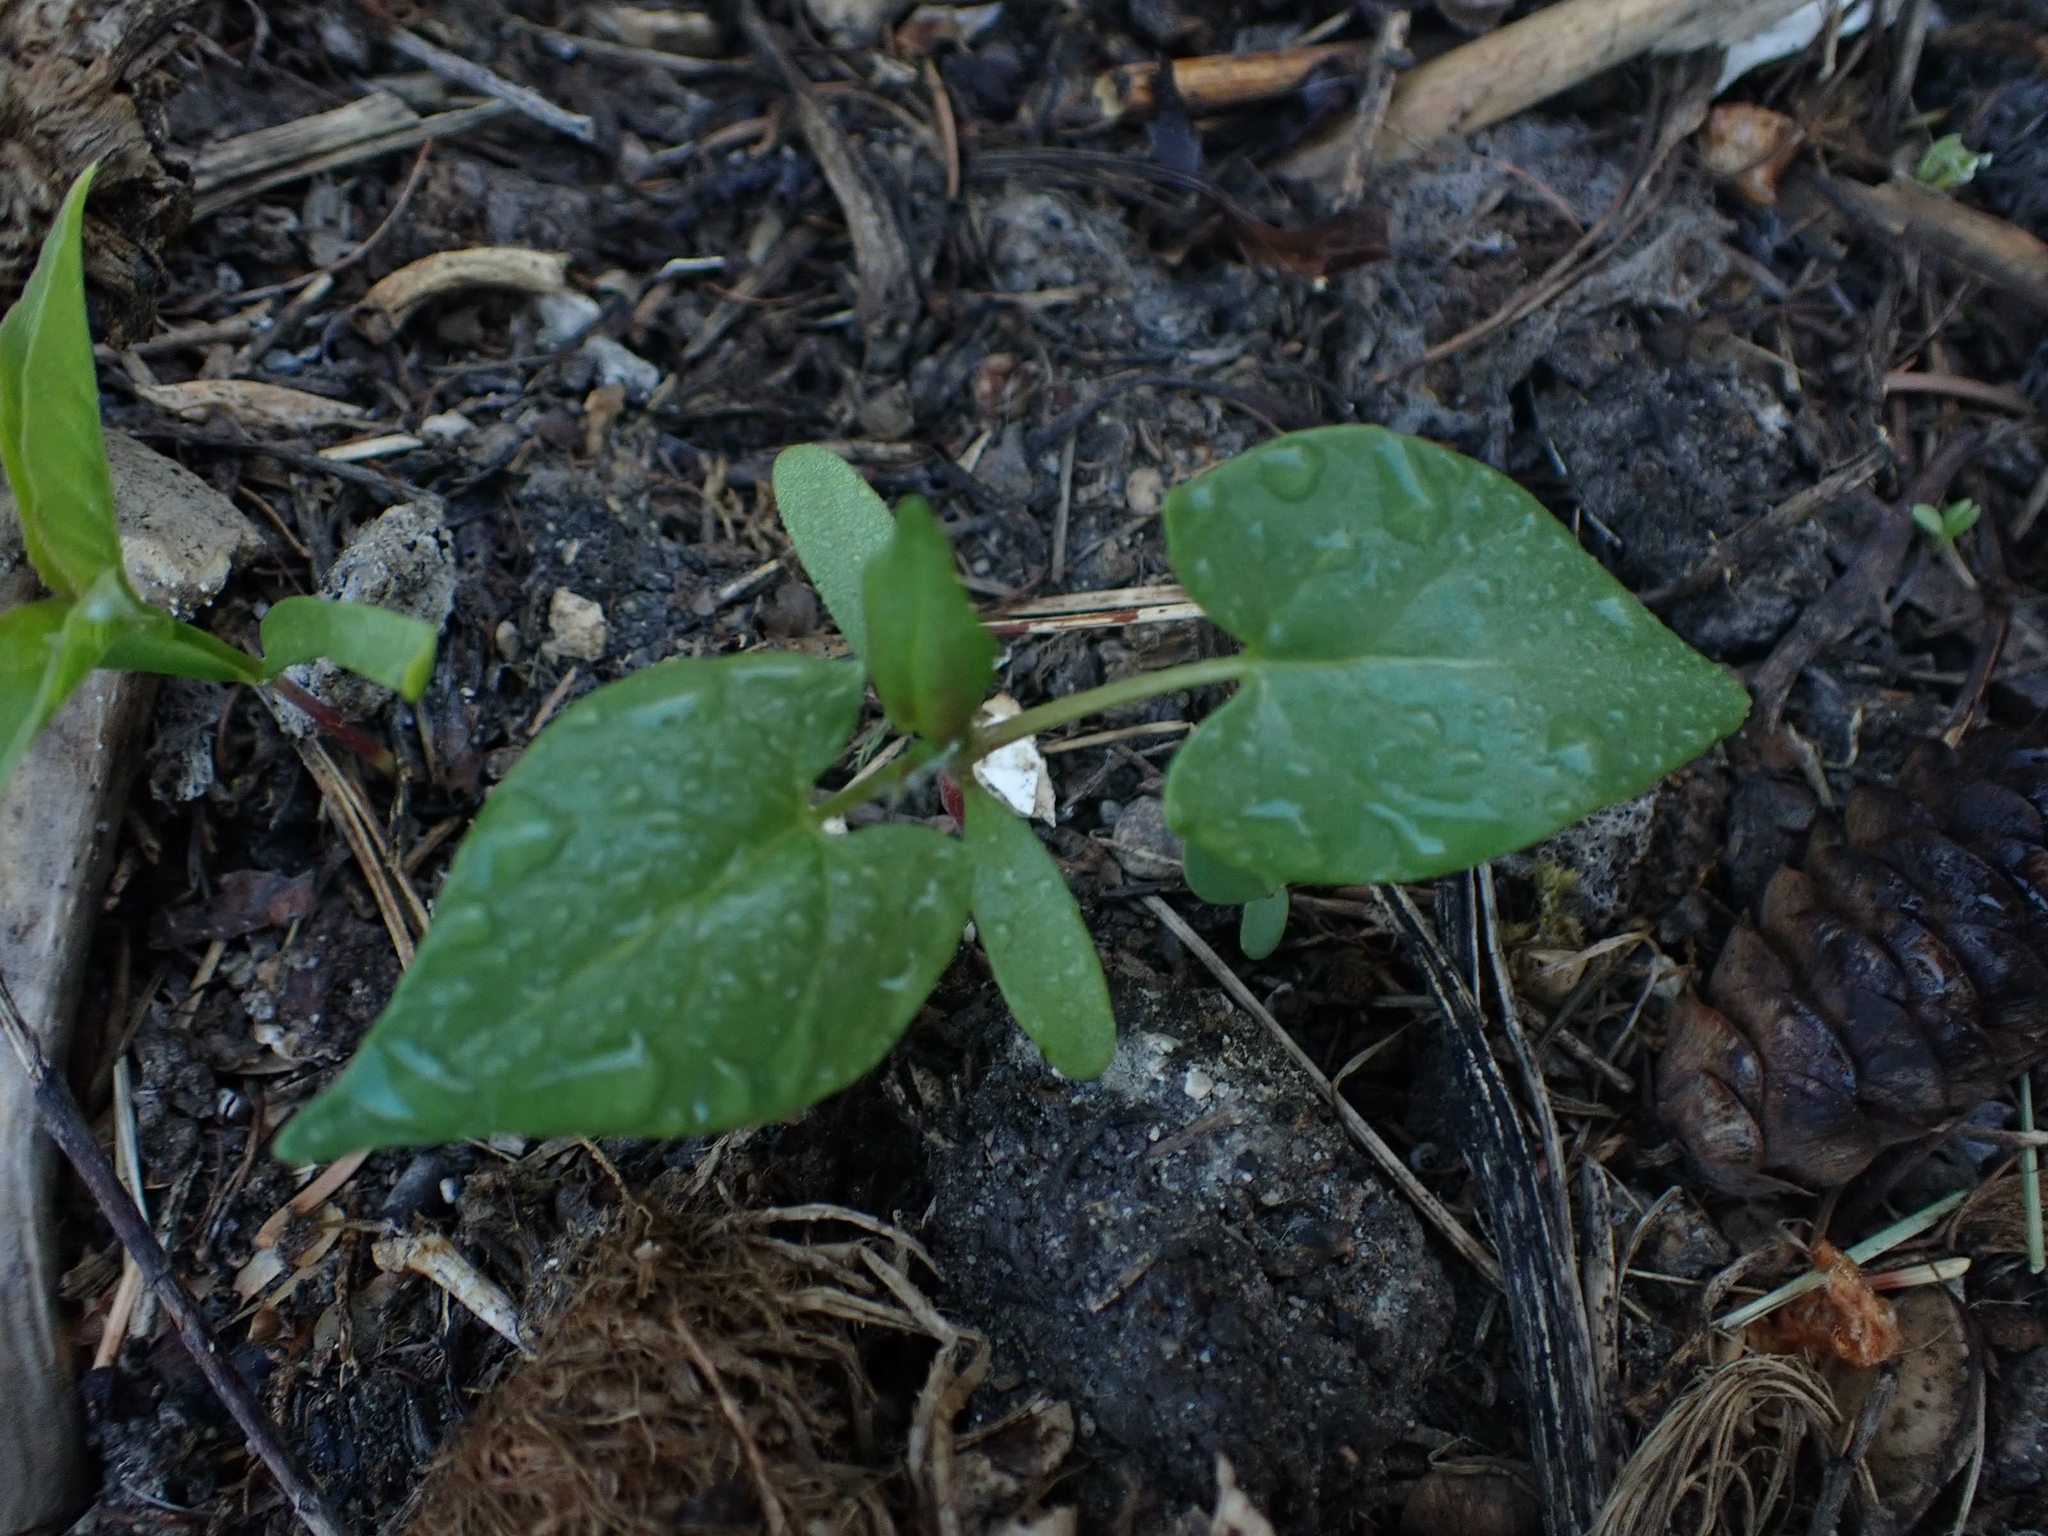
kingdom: Plantae
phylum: Tracheophyta
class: Magnoliopsida
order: Caryophyllales
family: Polygonaceae
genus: Fallopia
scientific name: Fallopia convolvulus
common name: Black bindweed
